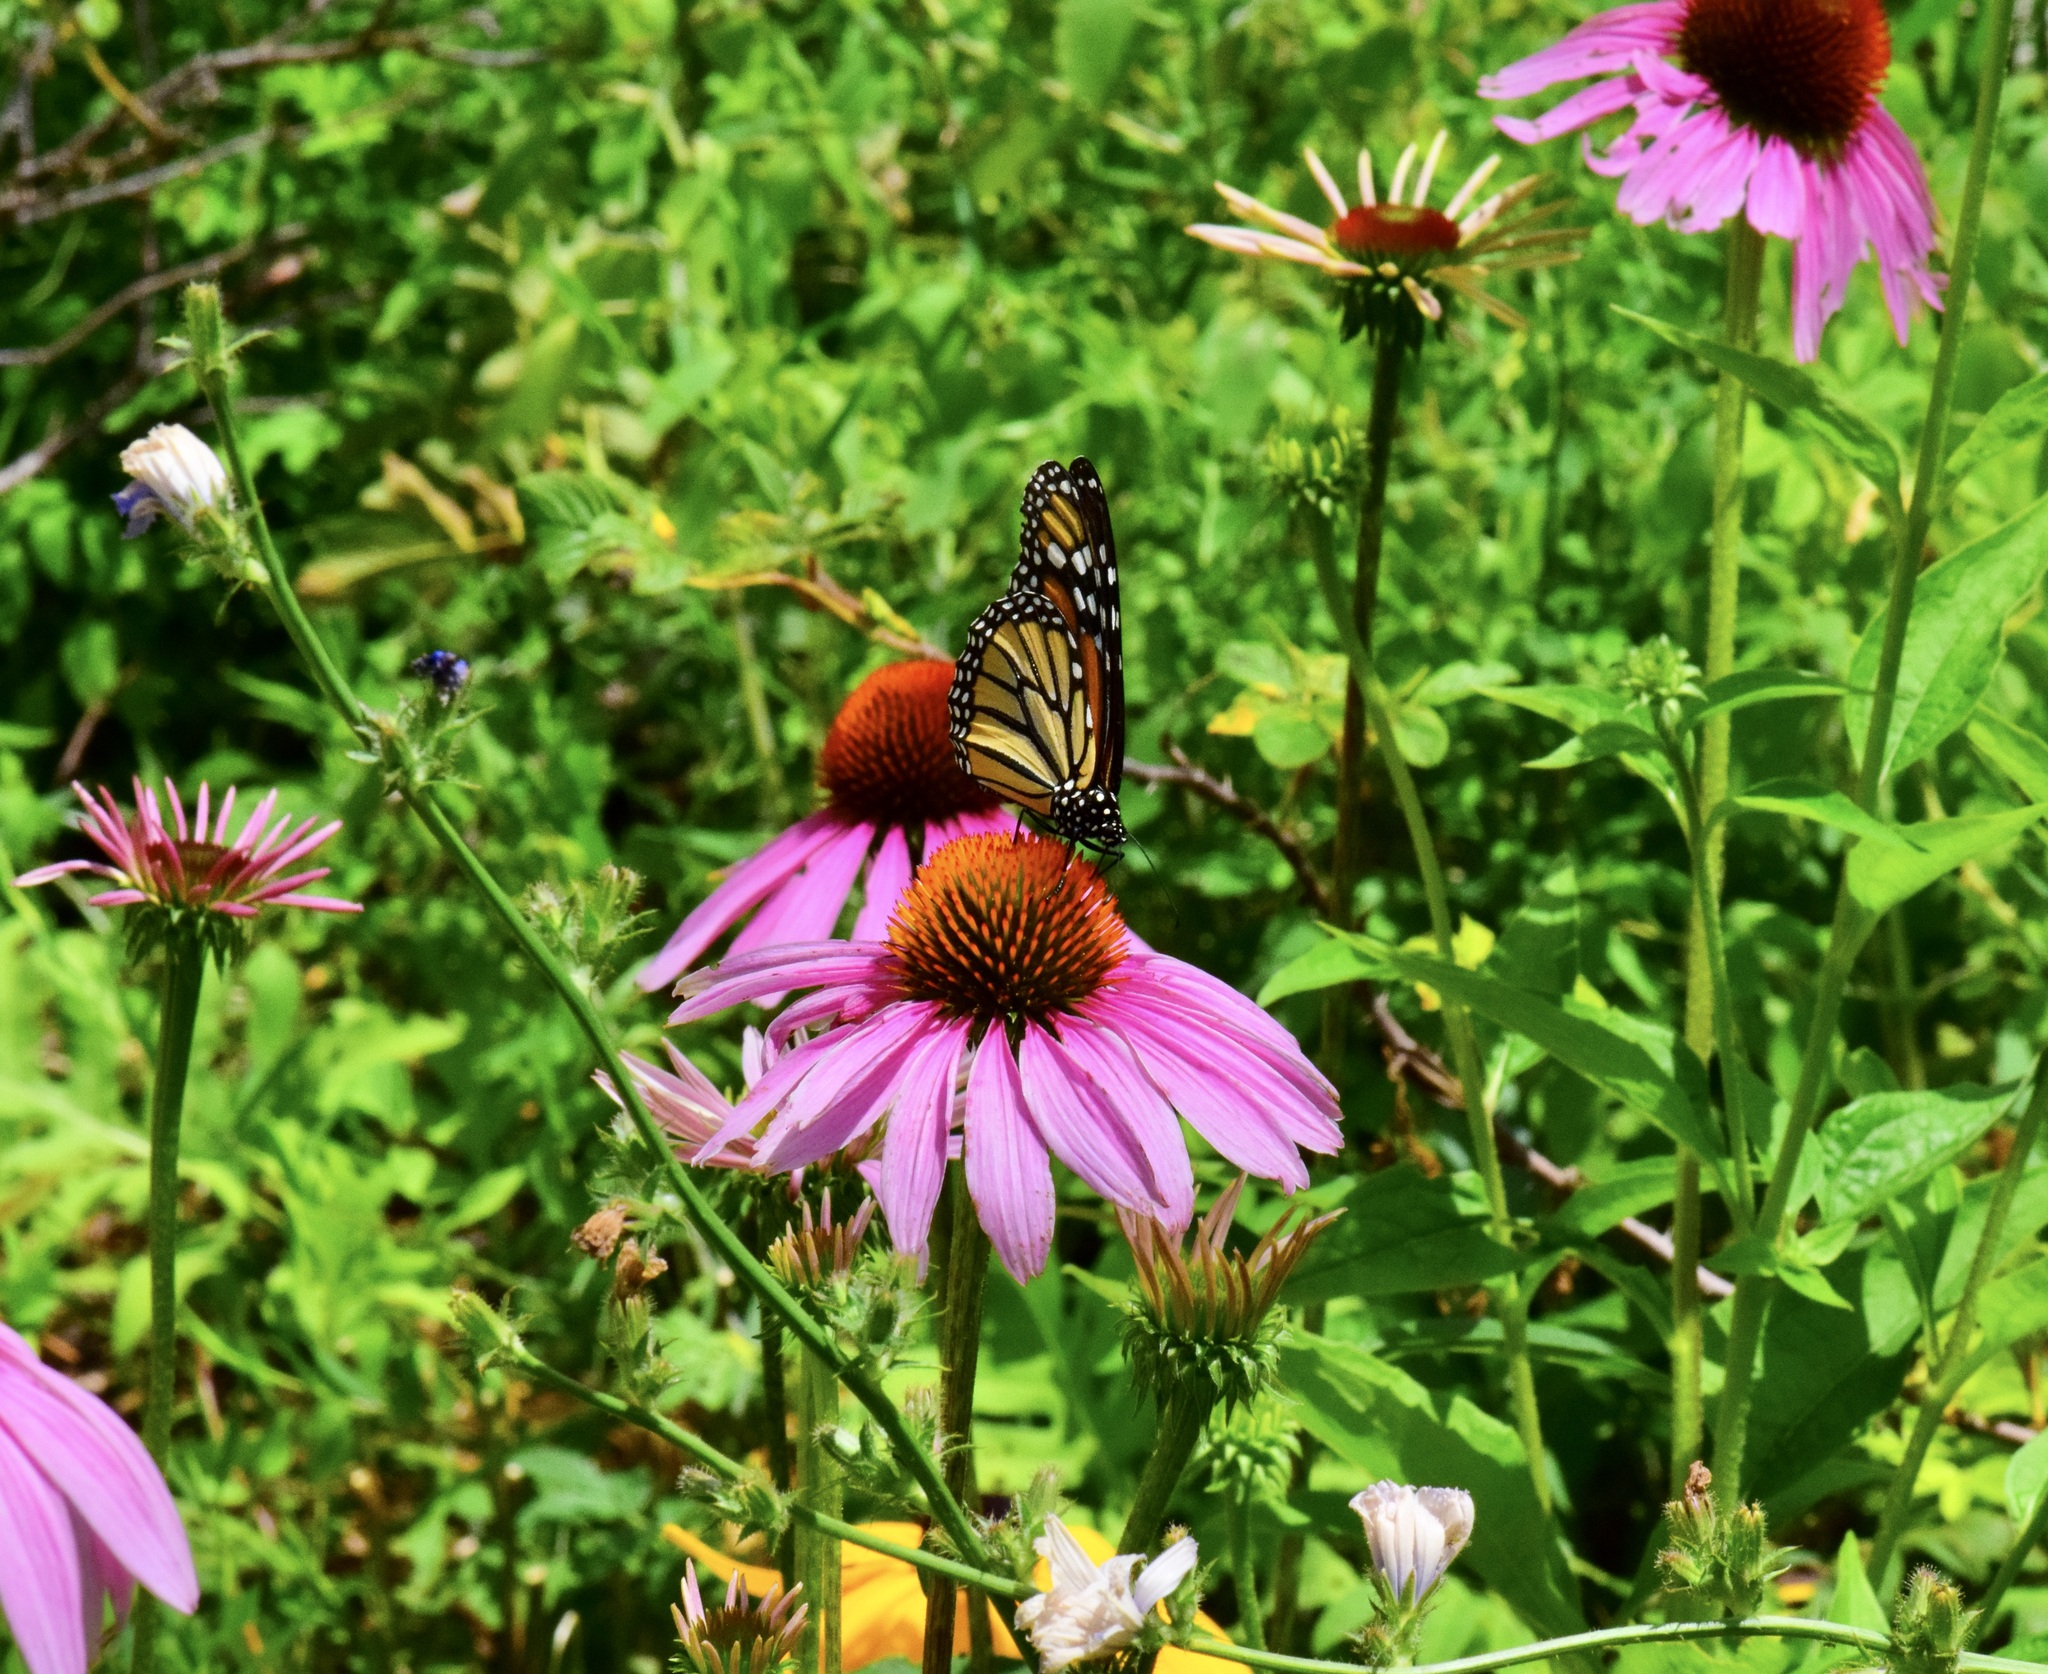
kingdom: Animalia
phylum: Arthropoda
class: Insecta
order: Lepidoptera
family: Nymphalidae
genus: Danaus
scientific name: Danaus plexippus
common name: Monarch
